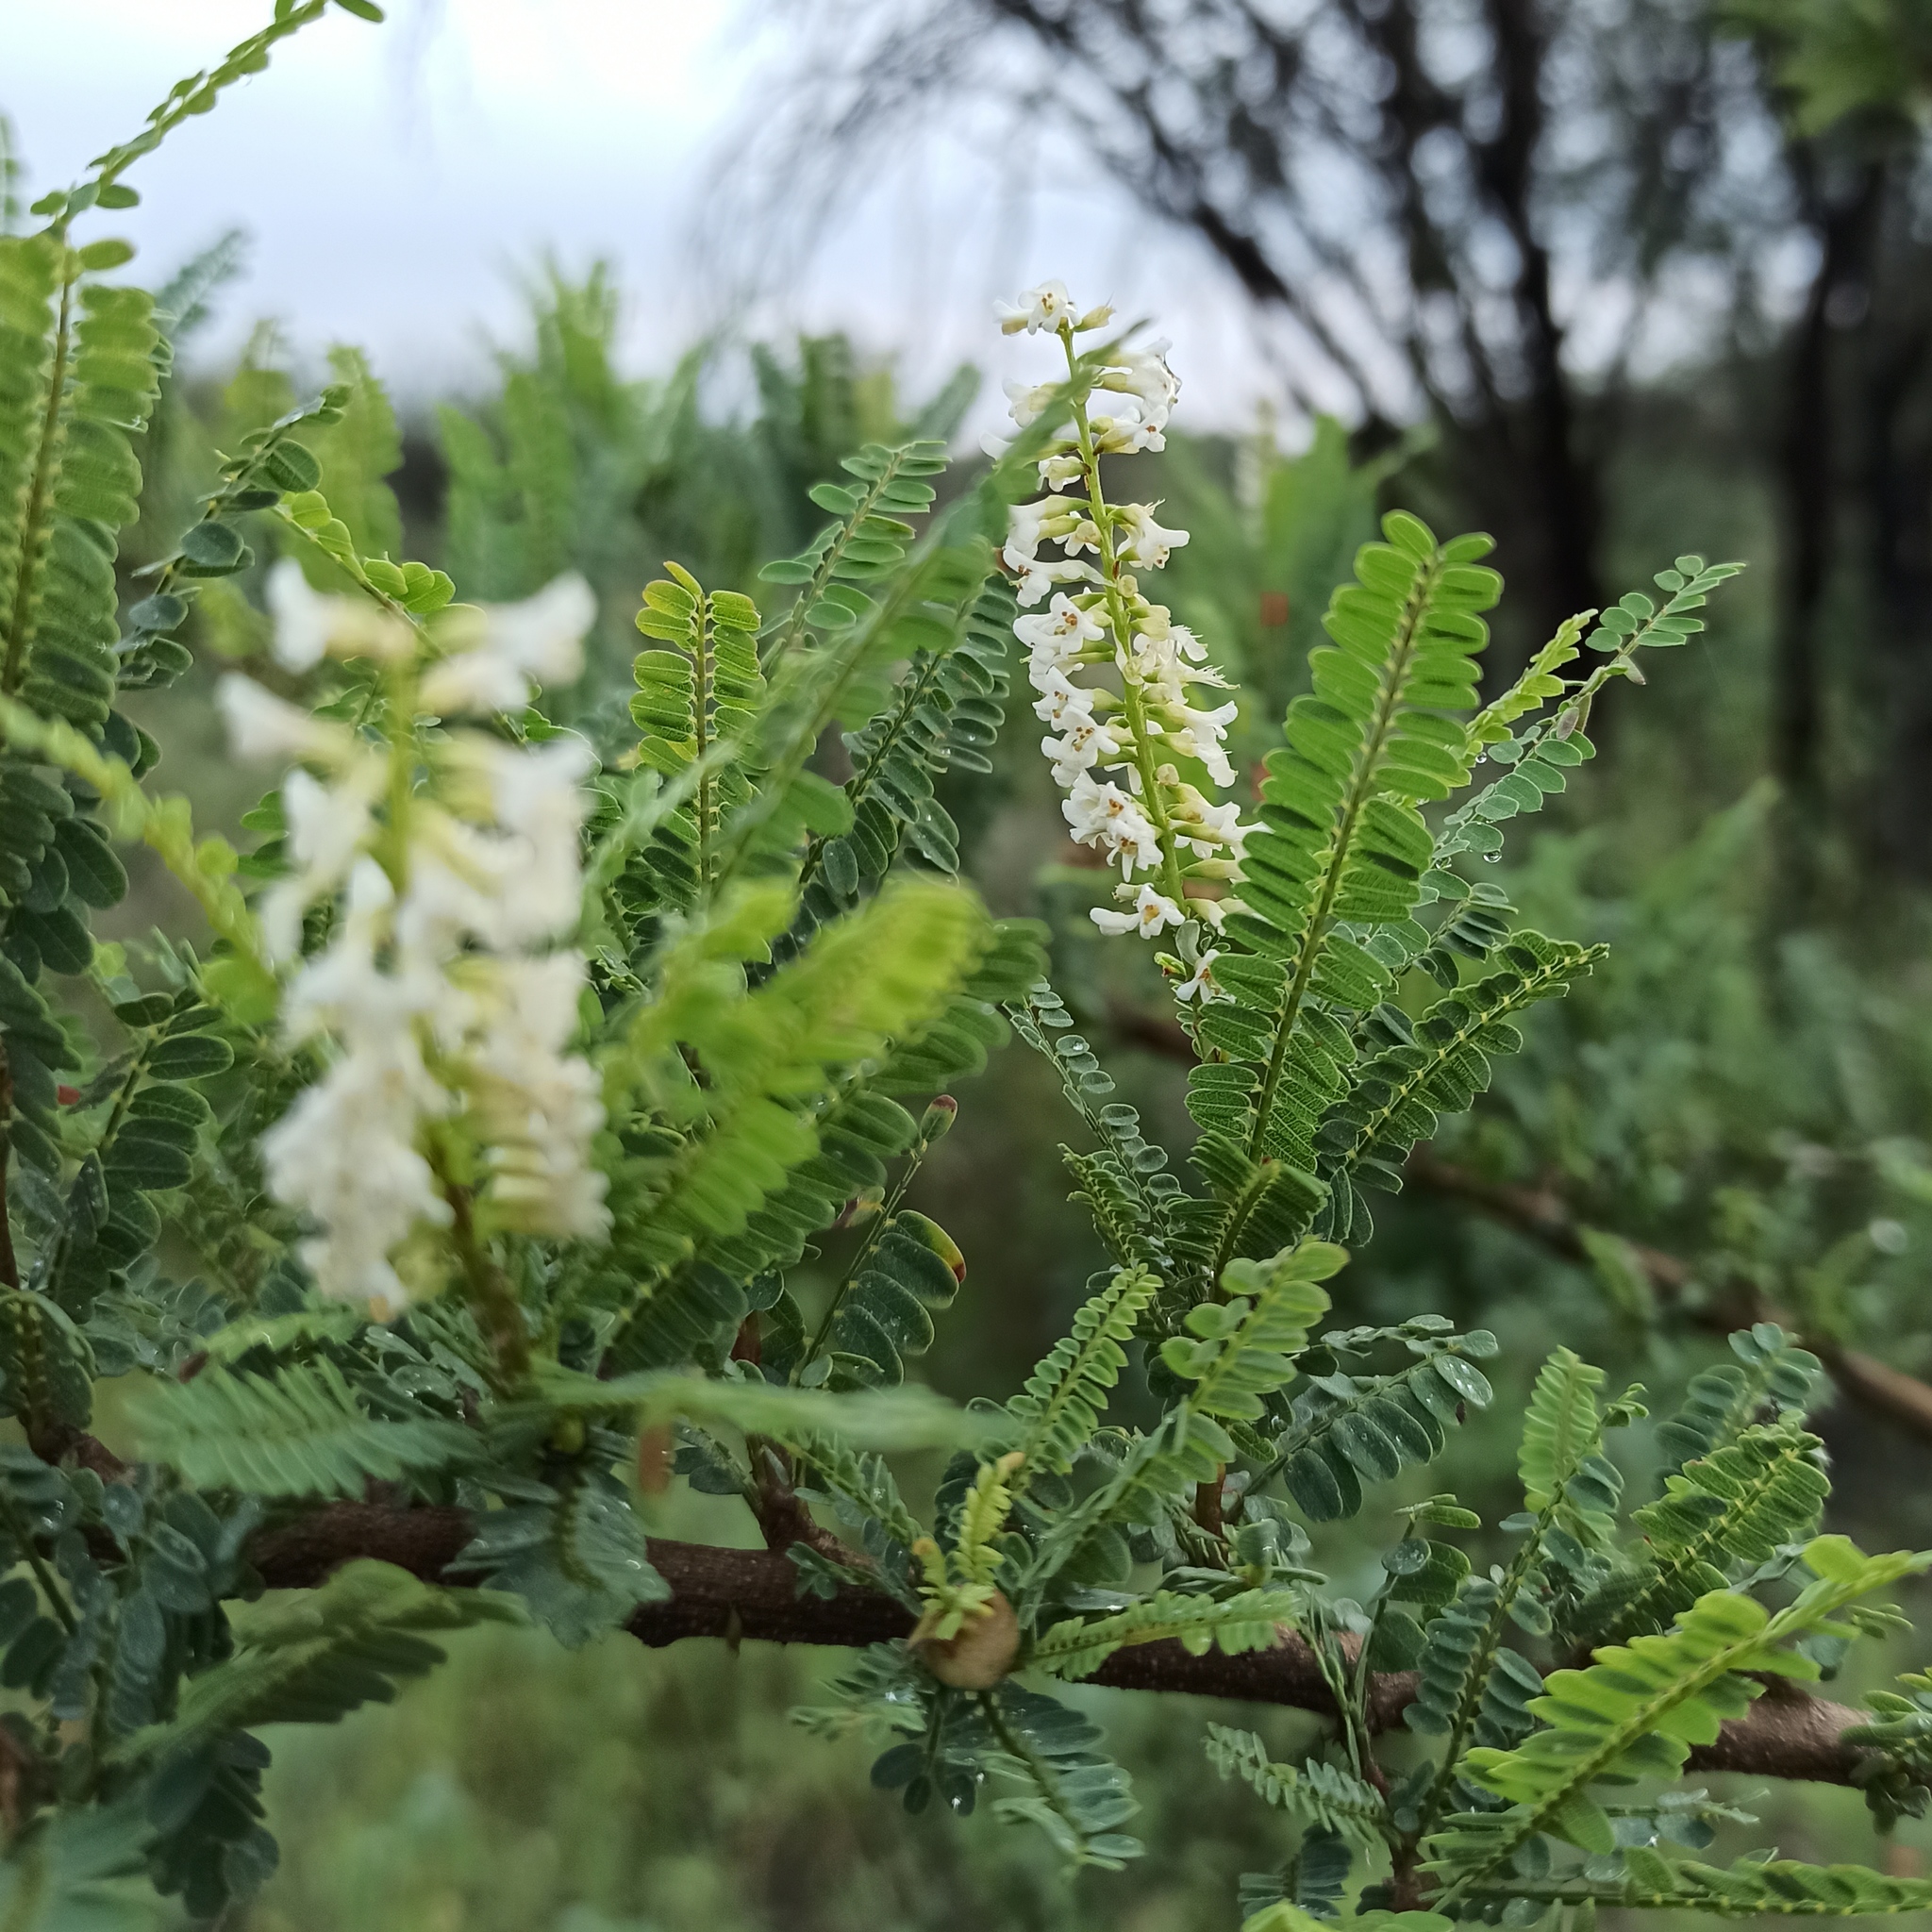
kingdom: Plantae
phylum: Tracheophyta
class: Magnoliopsida
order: Fabales
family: Fabaceae
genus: Eysenhardtia
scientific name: Eysenhardtia polystachya
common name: Kidneywood
